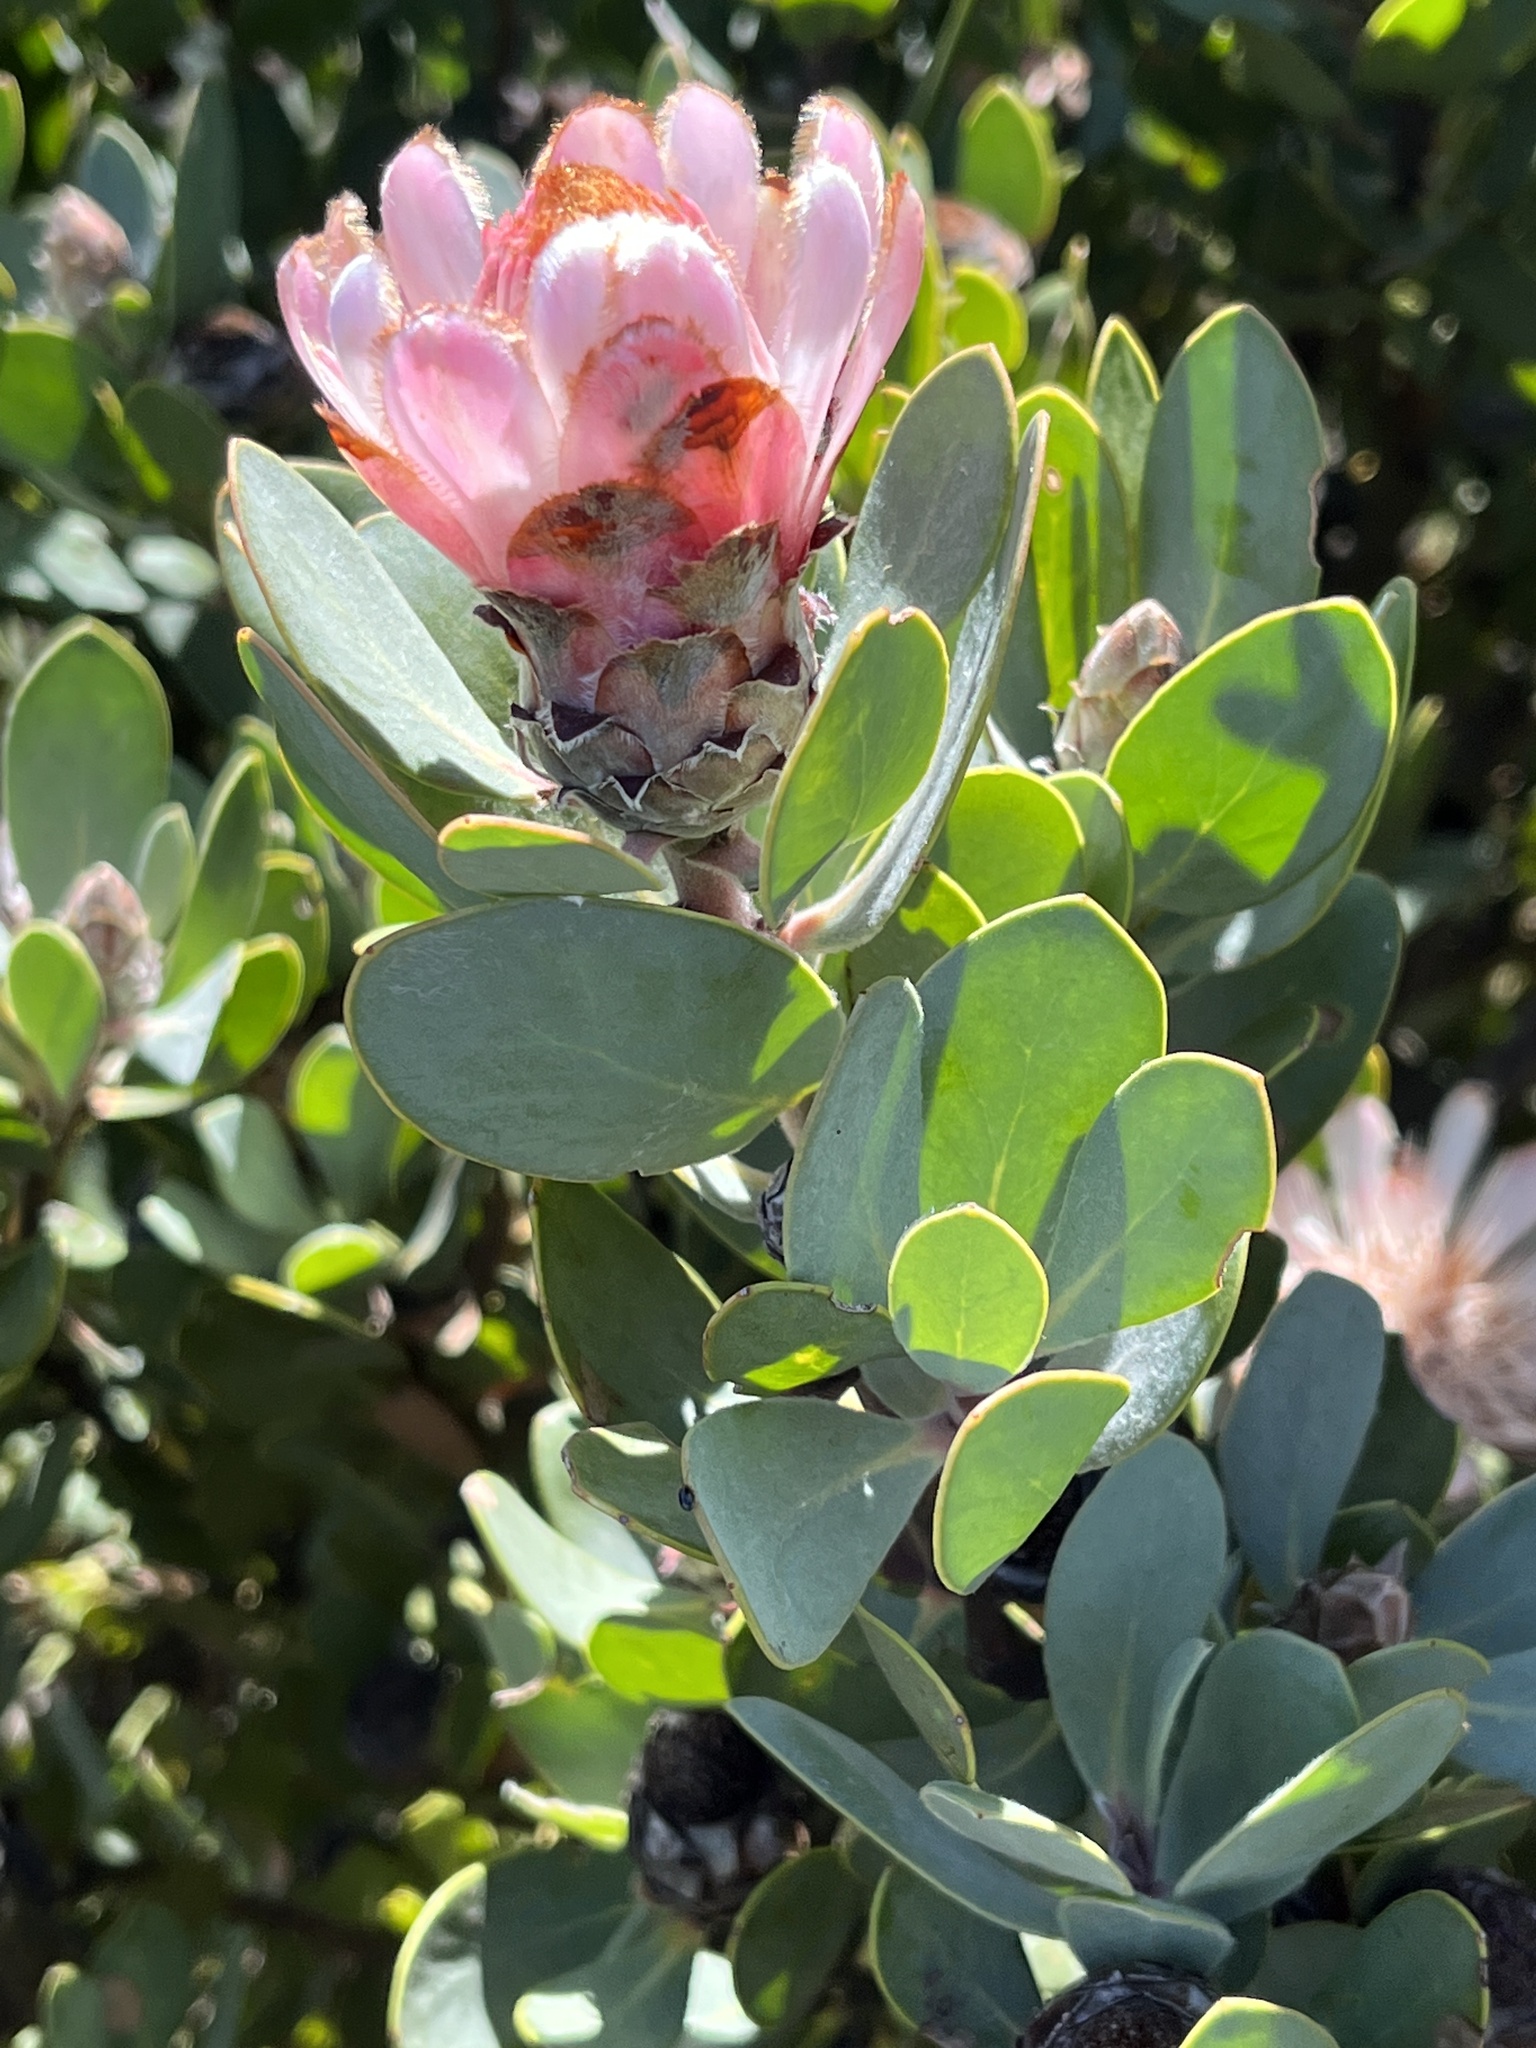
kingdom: Plantae
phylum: Tracheophyta
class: Magnoliopsida
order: Proteales
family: Proteaceae
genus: Protea
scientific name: Protea punctata
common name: Water sugarbush
